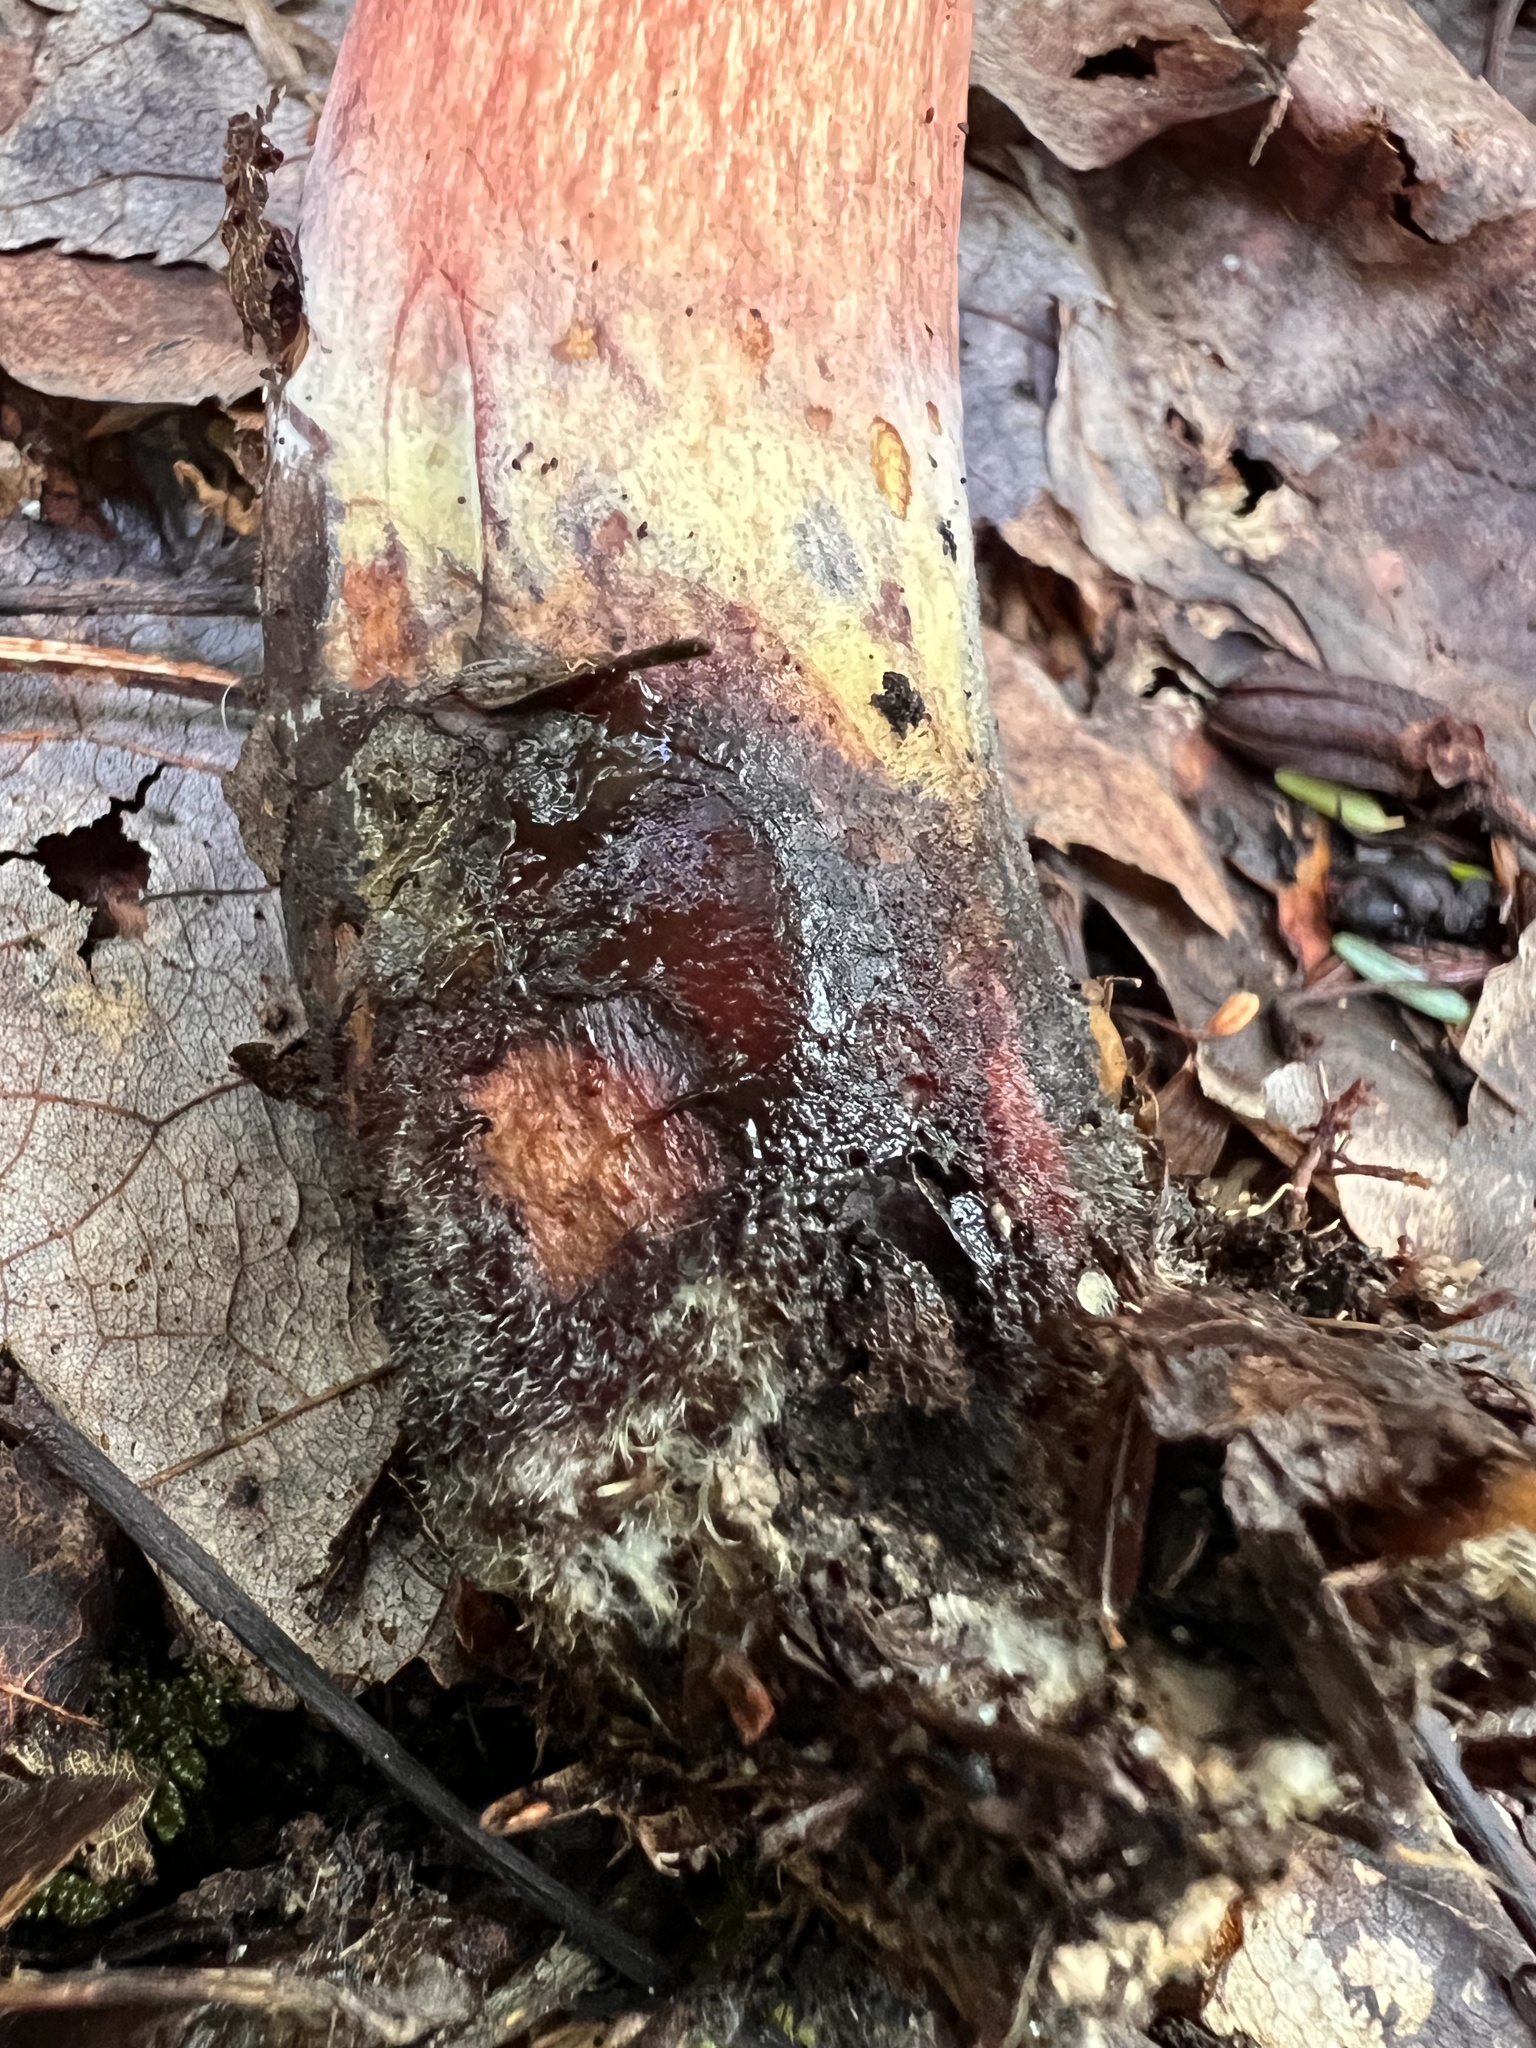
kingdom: Fungi
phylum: Basidiomycota
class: Agaricomycetes
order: Boletales
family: Boletaceae
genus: Boletus
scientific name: Boletus subvelutipes
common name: Red-mouth bolete
